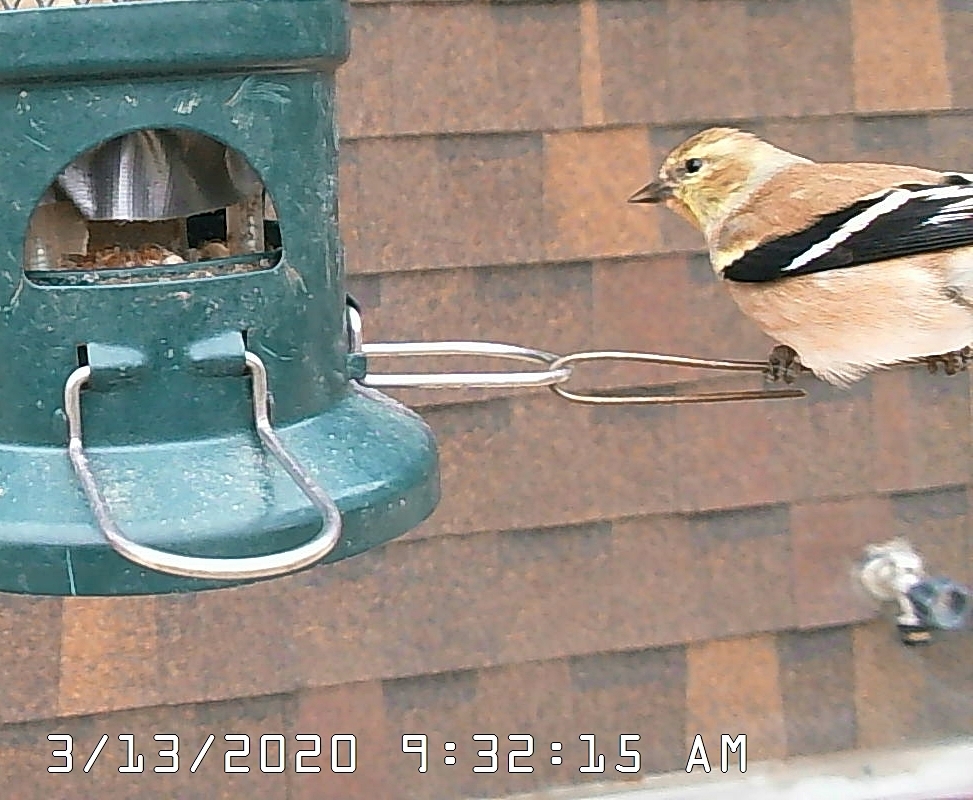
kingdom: Animalia
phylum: Chordata
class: Aves
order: Passeriformes
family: Fringillidae
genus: Spinus
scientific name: Spinus tristis
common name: American goldfinch
